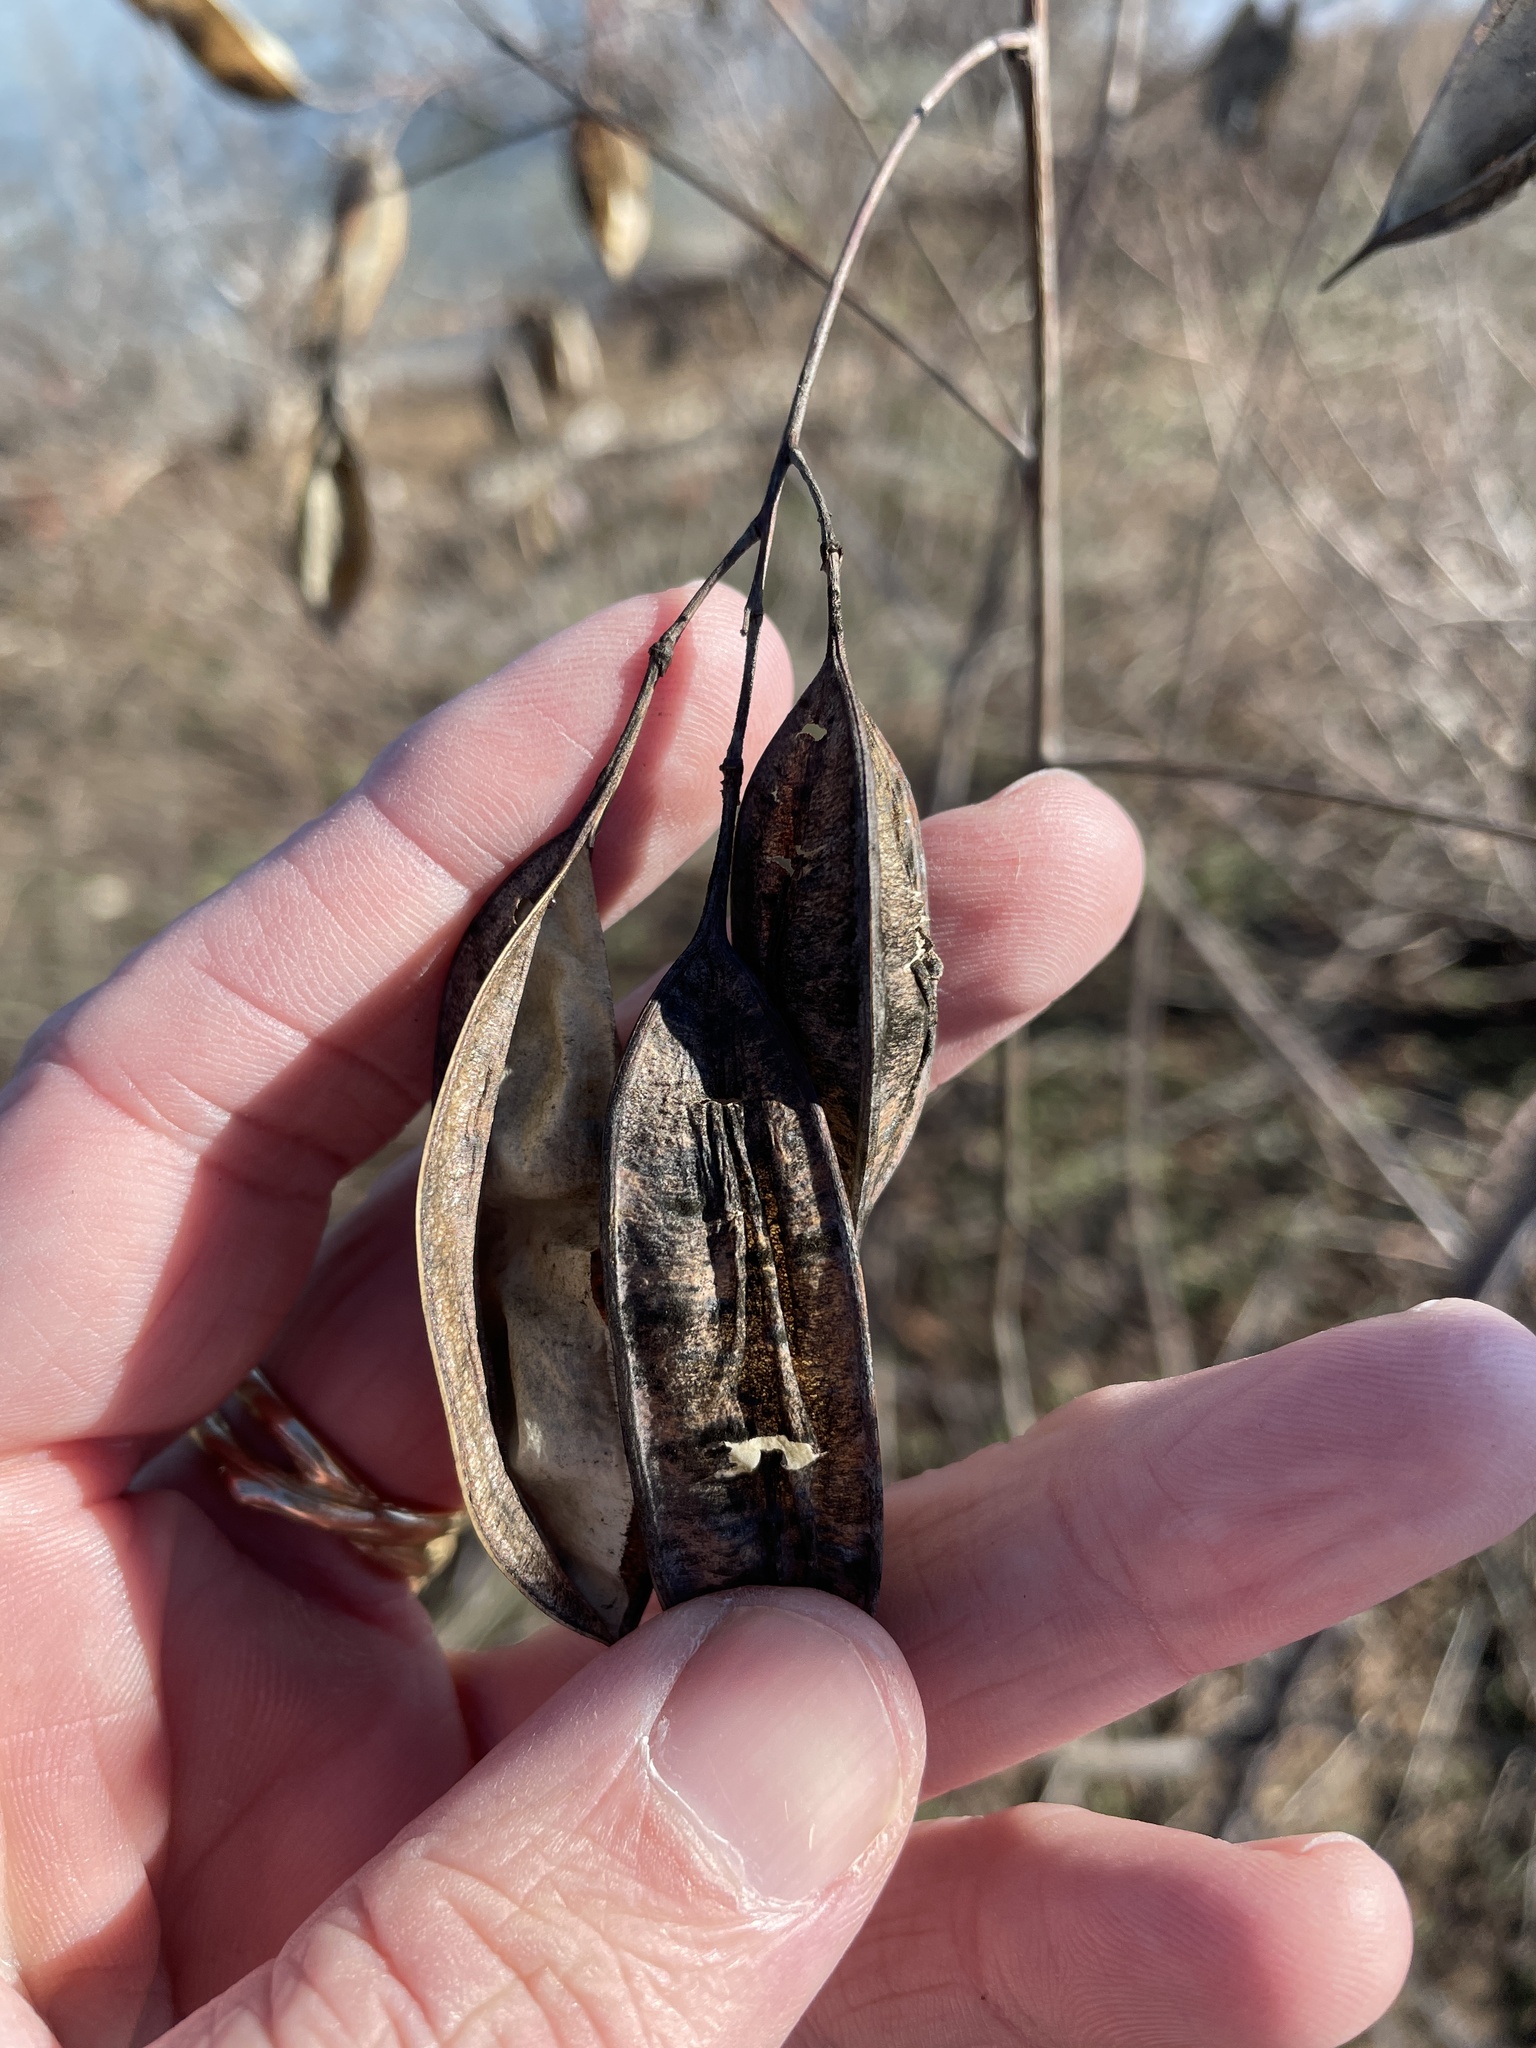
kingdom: Plantae
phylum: Tracheophyta
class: Magnoliopsida
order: Fabales
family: Fabaceae
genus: Sesbania
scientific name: Sesbania vesicaria
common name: Bagpod
